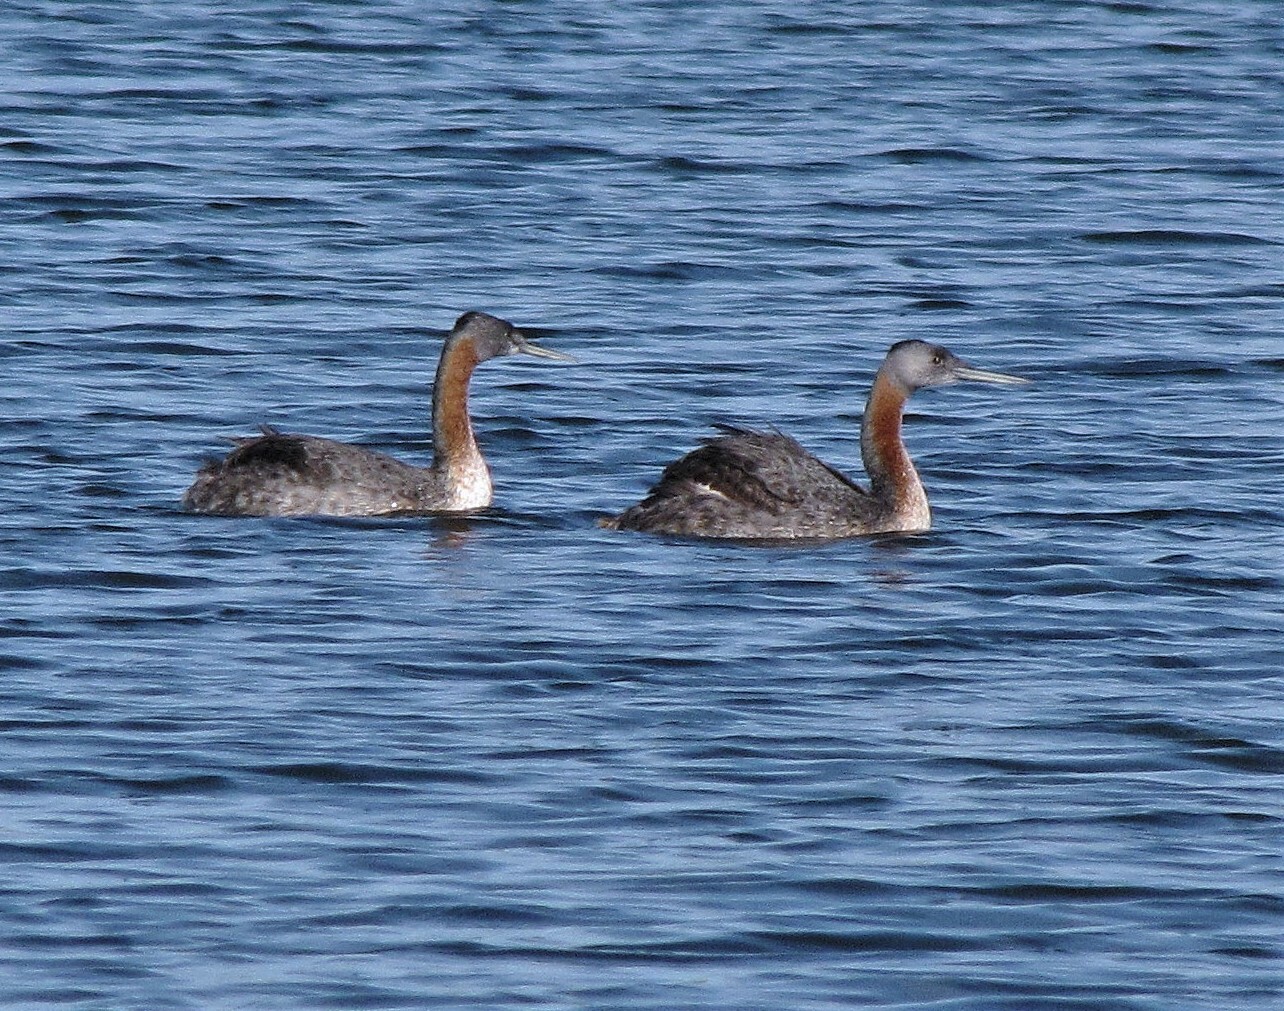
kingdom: Animalia
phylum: Chordata
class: Aves
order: Podicipediformes
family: Podicipedidae
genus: Podiceps
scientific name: Podiceps major
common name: Great grebe
